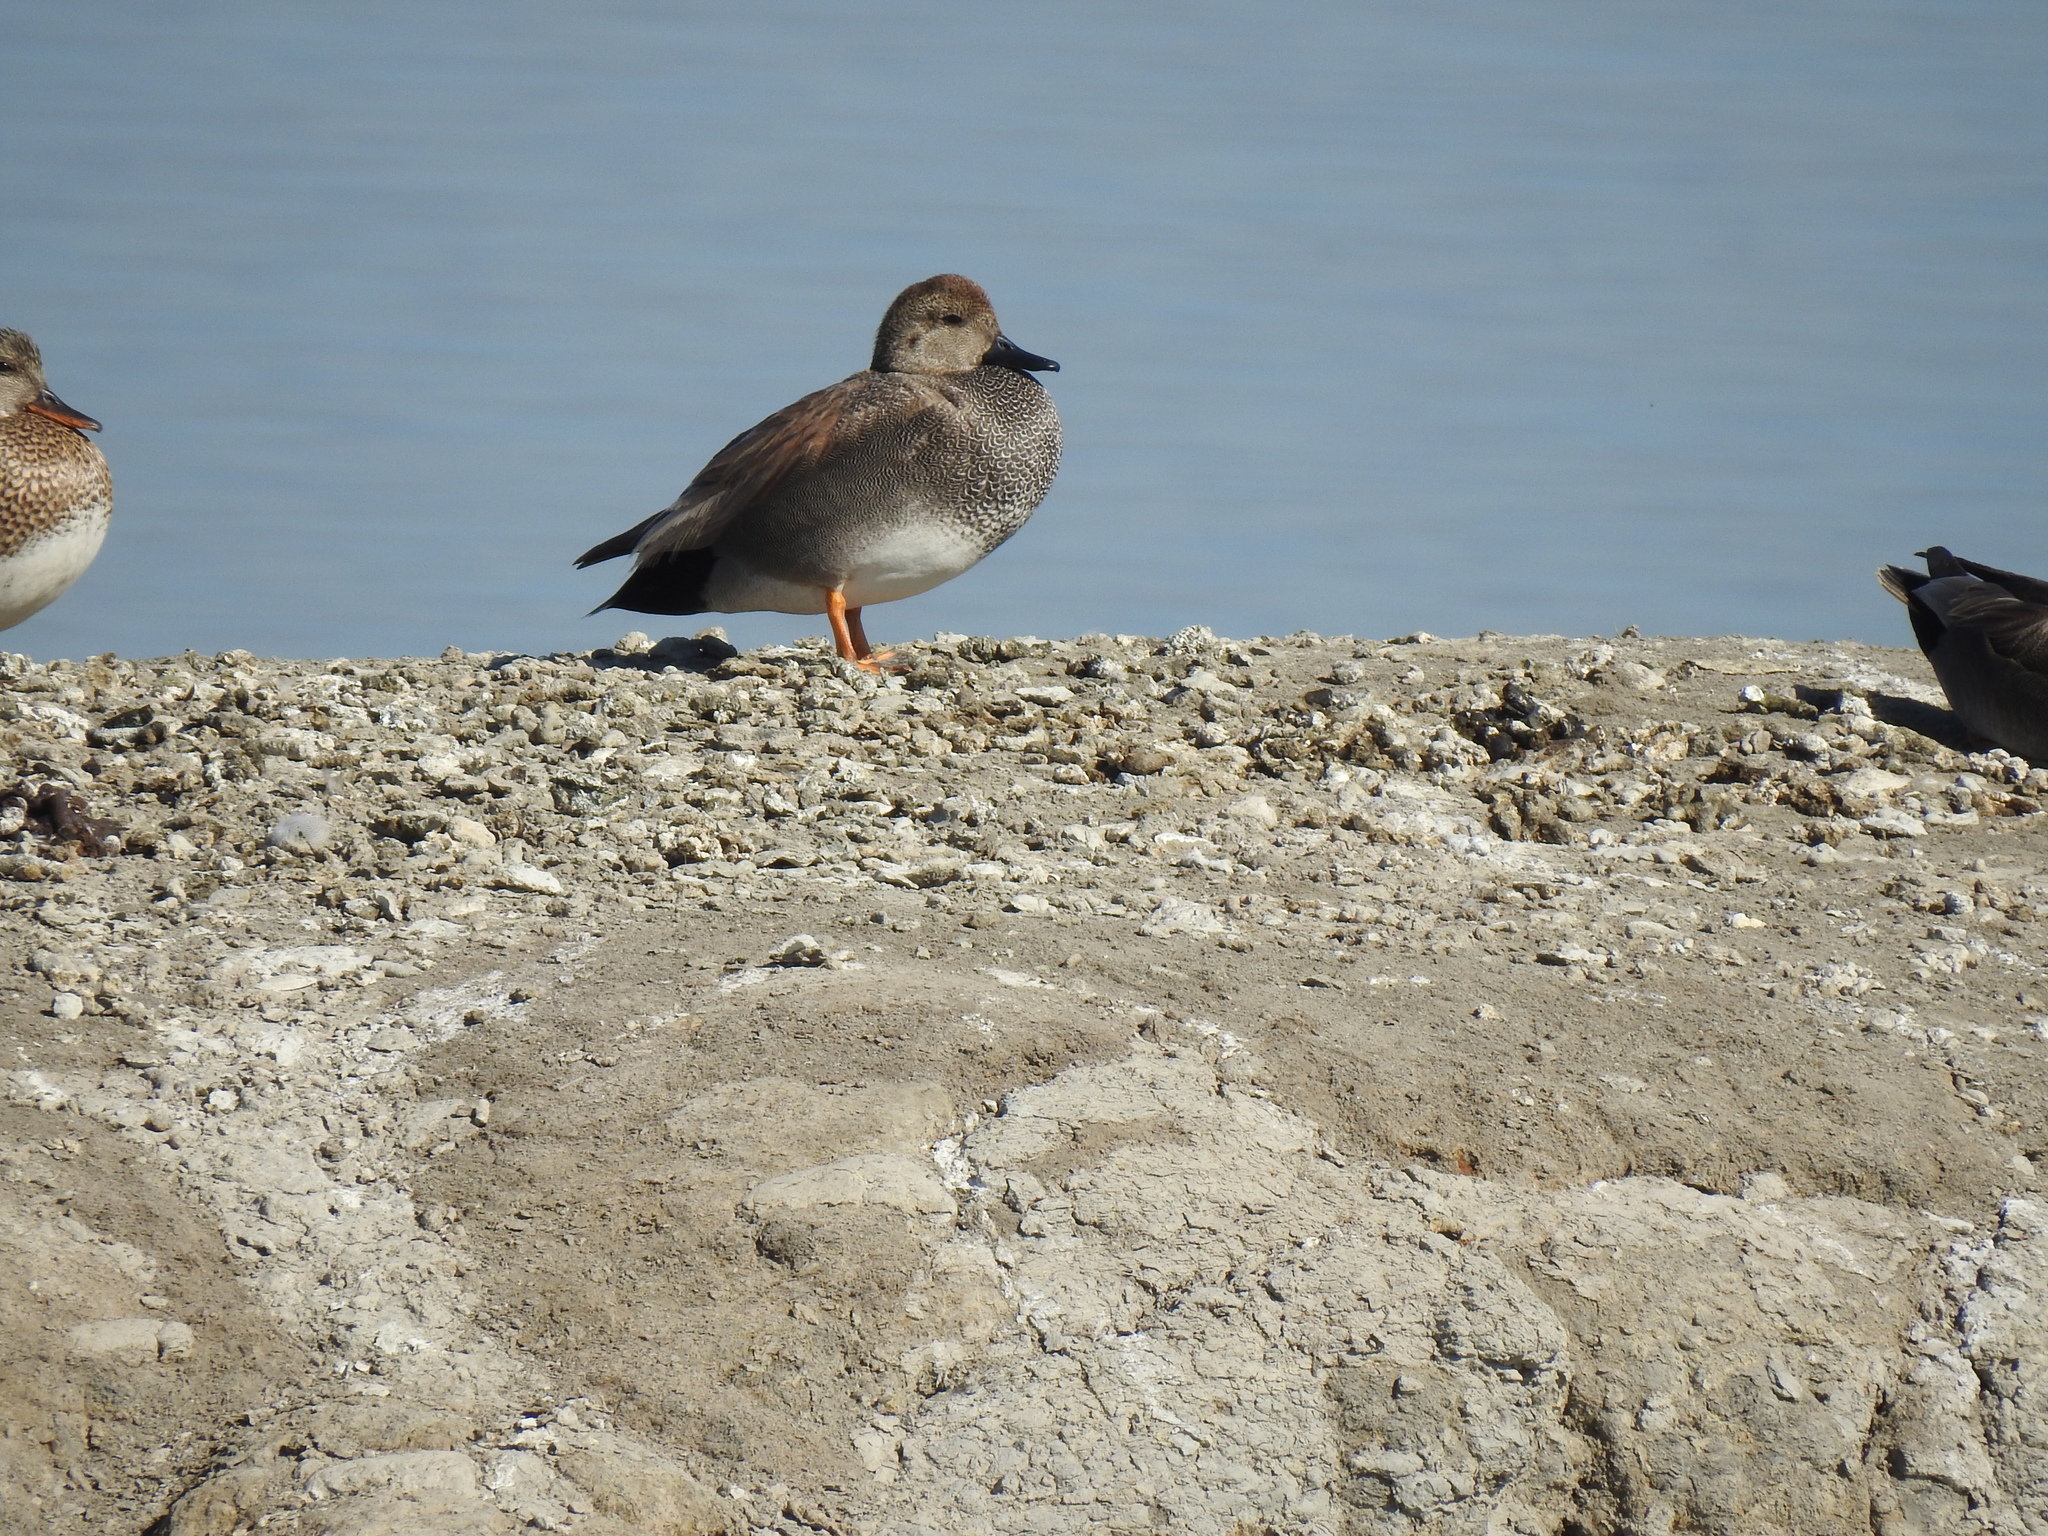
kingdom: Animalia
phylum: Chordata
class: Aves
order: Anseriformes
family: Anatidae
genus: Mareca
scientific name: Mareca strepera
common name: Gadwall
